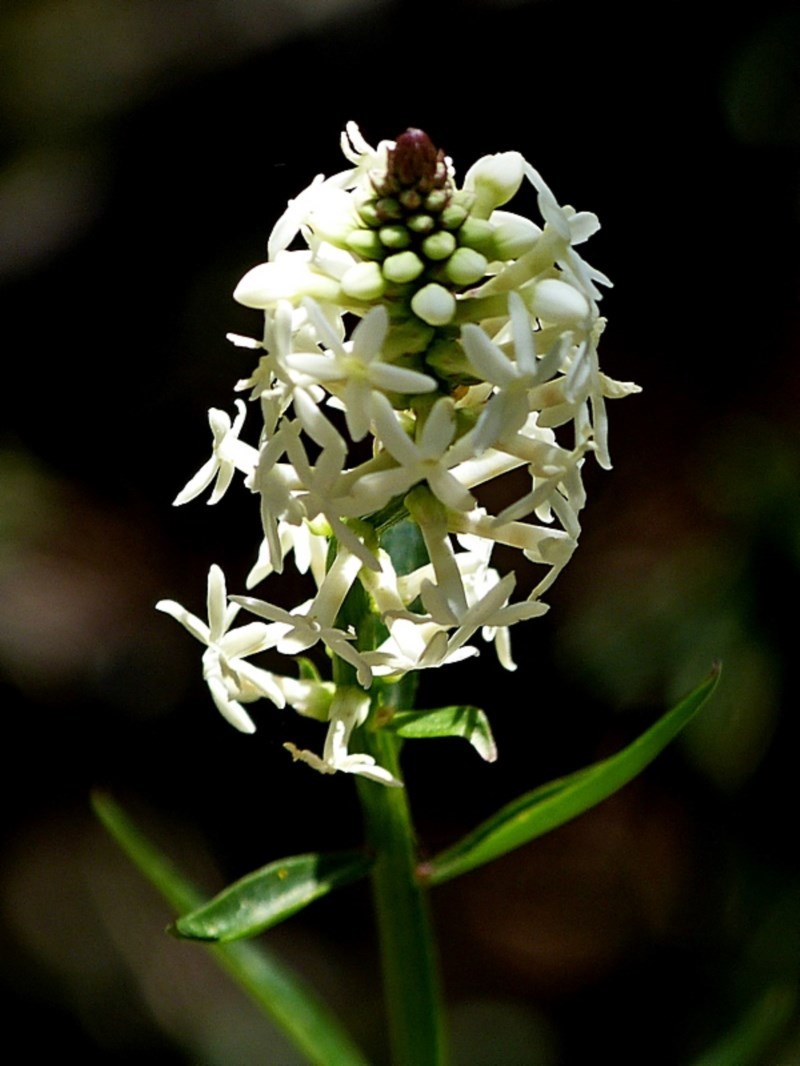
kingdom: Plantae
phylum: Tracheophyta
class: Magnoliopsida
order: Celastrales
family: Celastraceae
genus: Stackhousia
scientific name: Stackhousia monogyna
